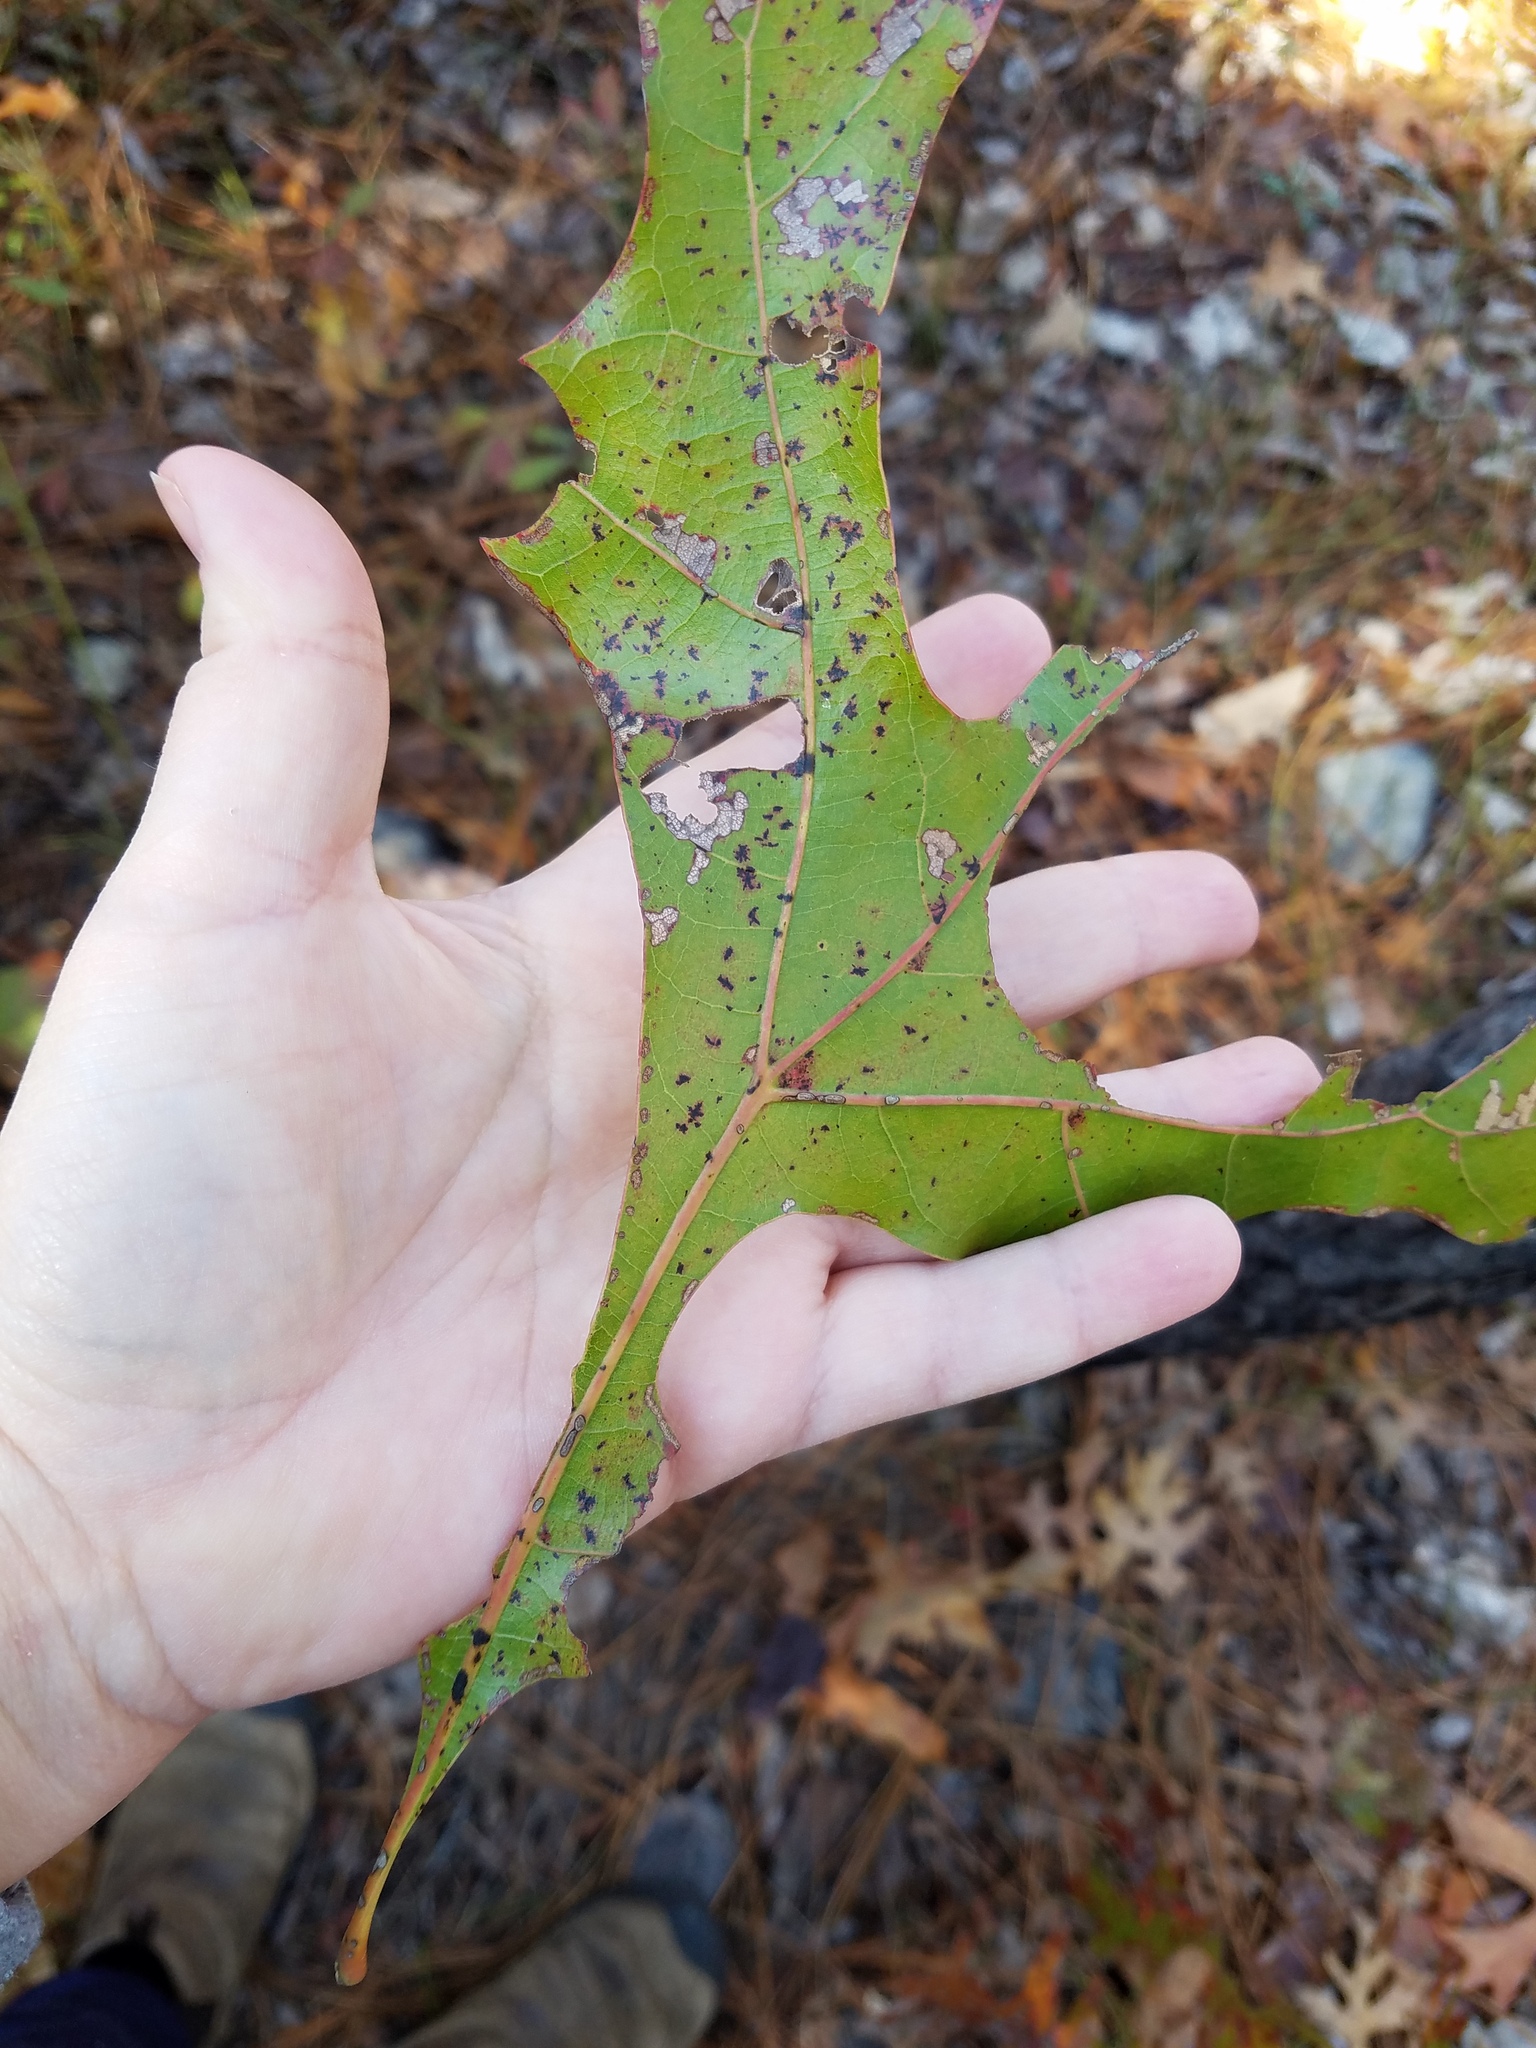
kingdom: Plantae
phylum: Tracheophyta
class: Magnoliopsida
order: Fagales
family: Fagaceae
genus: Quercus
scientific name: Quercus laevis
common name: Turkey oak
